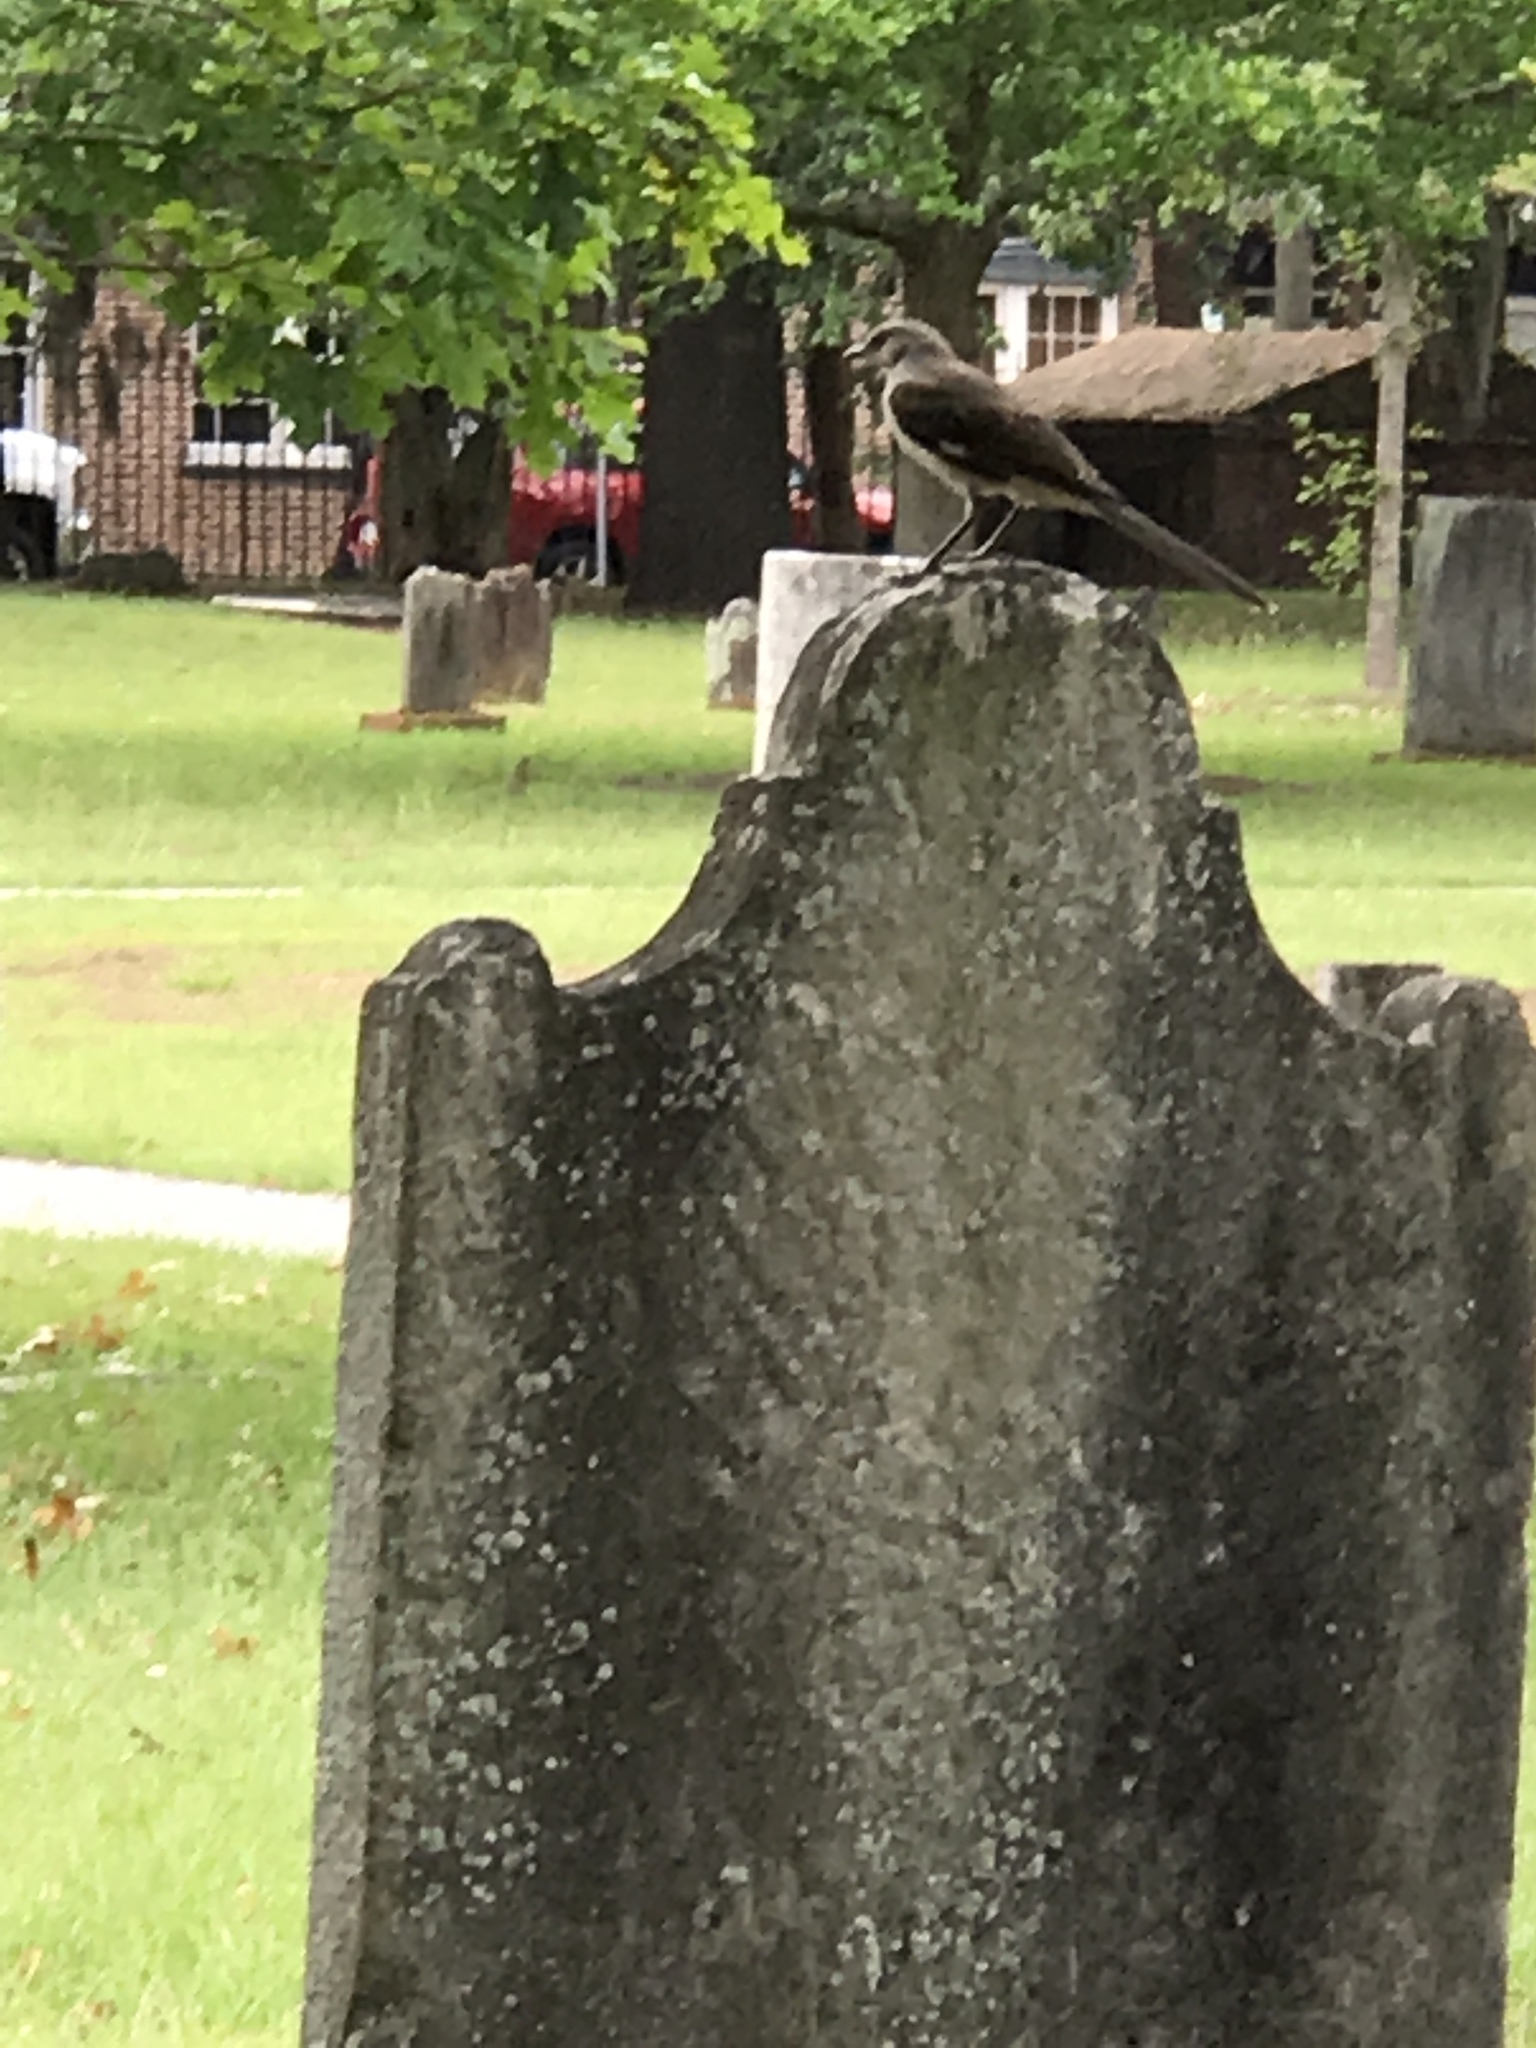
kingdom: Animalia
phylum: Chordata
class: Aves
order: Passeriformes
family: Mimidae
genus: Mimus
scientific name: Mimus polyglottos
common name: Northern mockingbird
